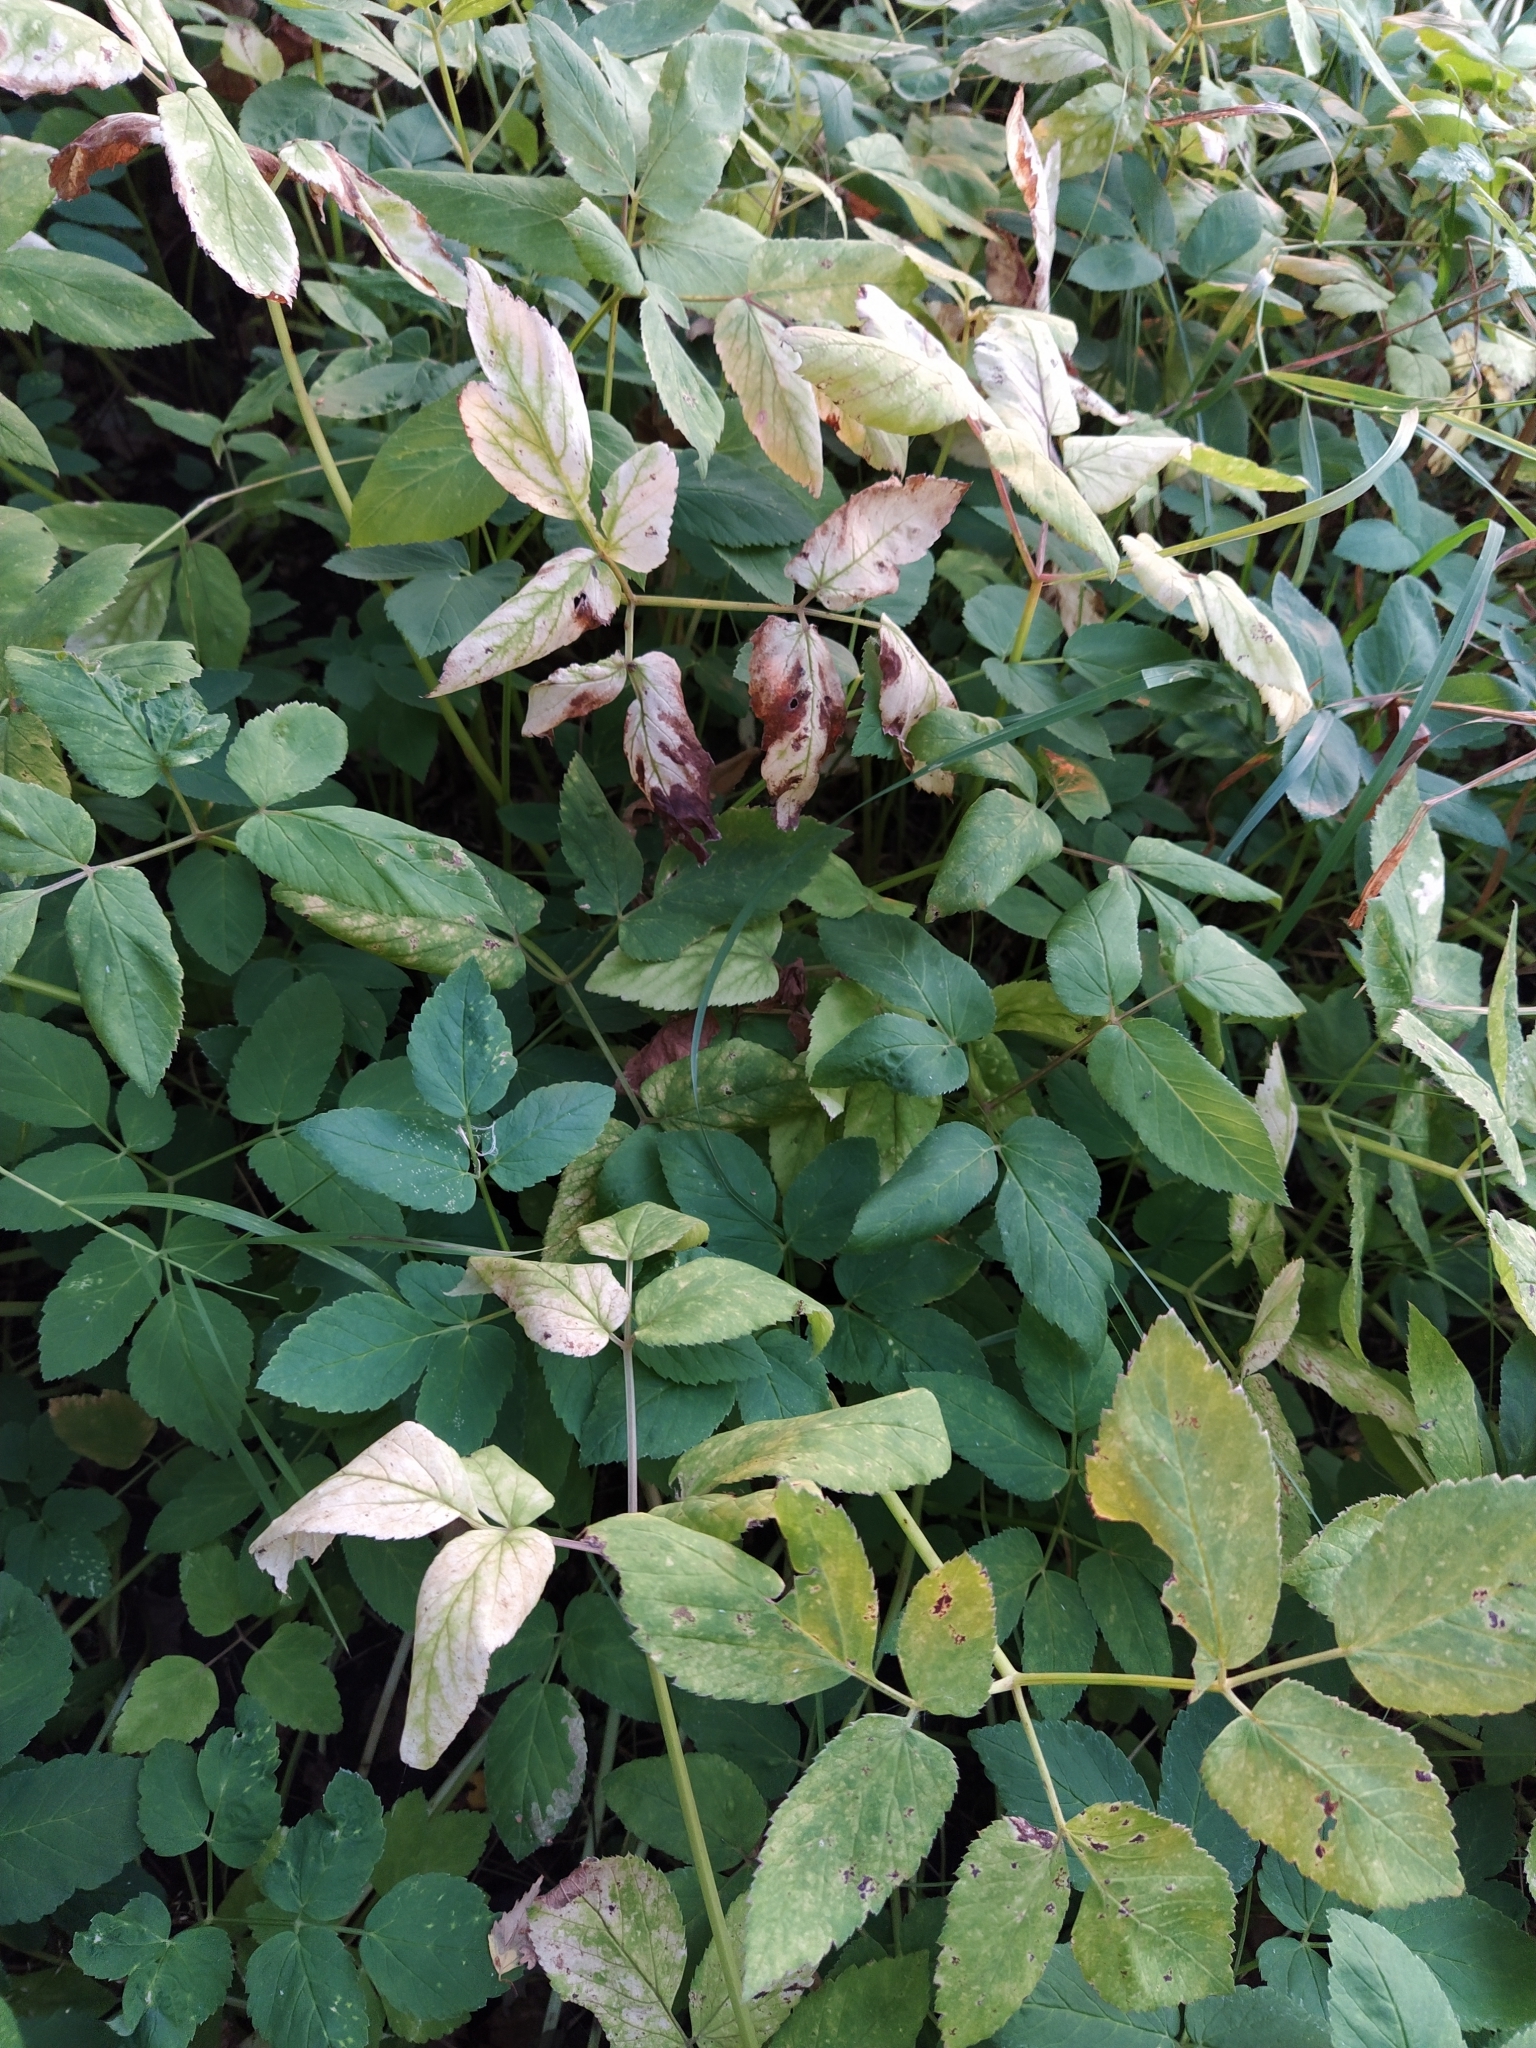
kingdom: Plantae
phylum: Tracheophyta
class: Magnoliopsida
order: Apiales
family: Apiaceae
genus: Aegopodium
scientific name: Aegopodium podagraria
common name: Ground-elder
